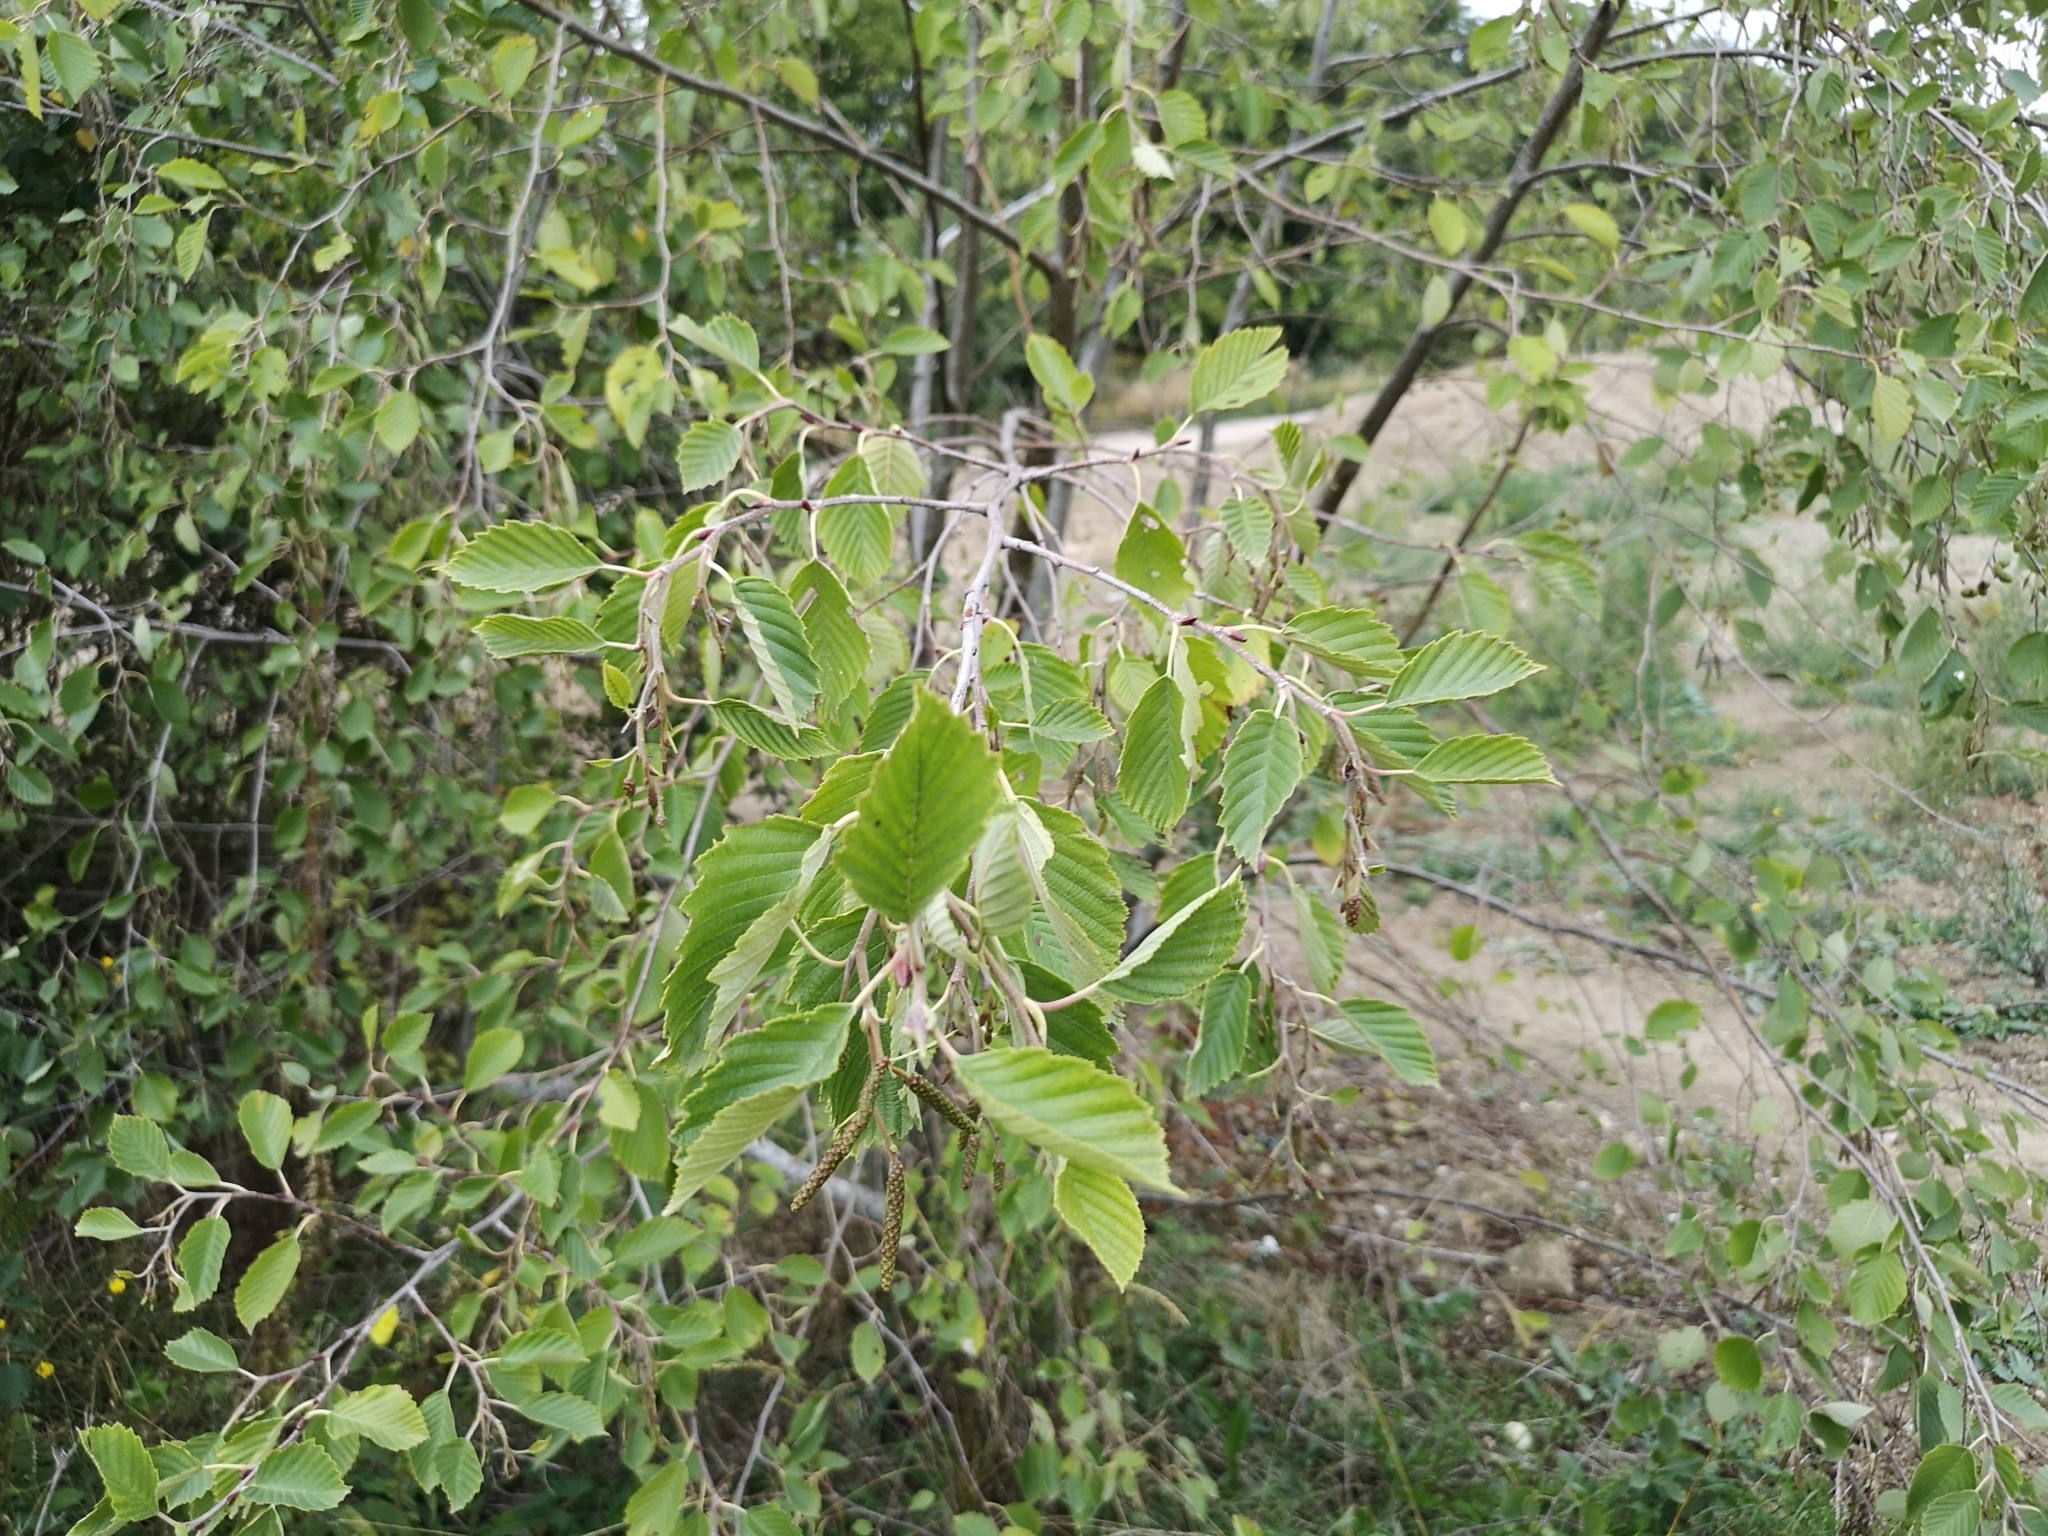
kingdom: Plantae
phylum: Tracheophyta
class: Magnoliopsida
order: Fagales
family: Betulaceae
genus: Alnus
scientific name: Alnus incana
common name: Grey alder
